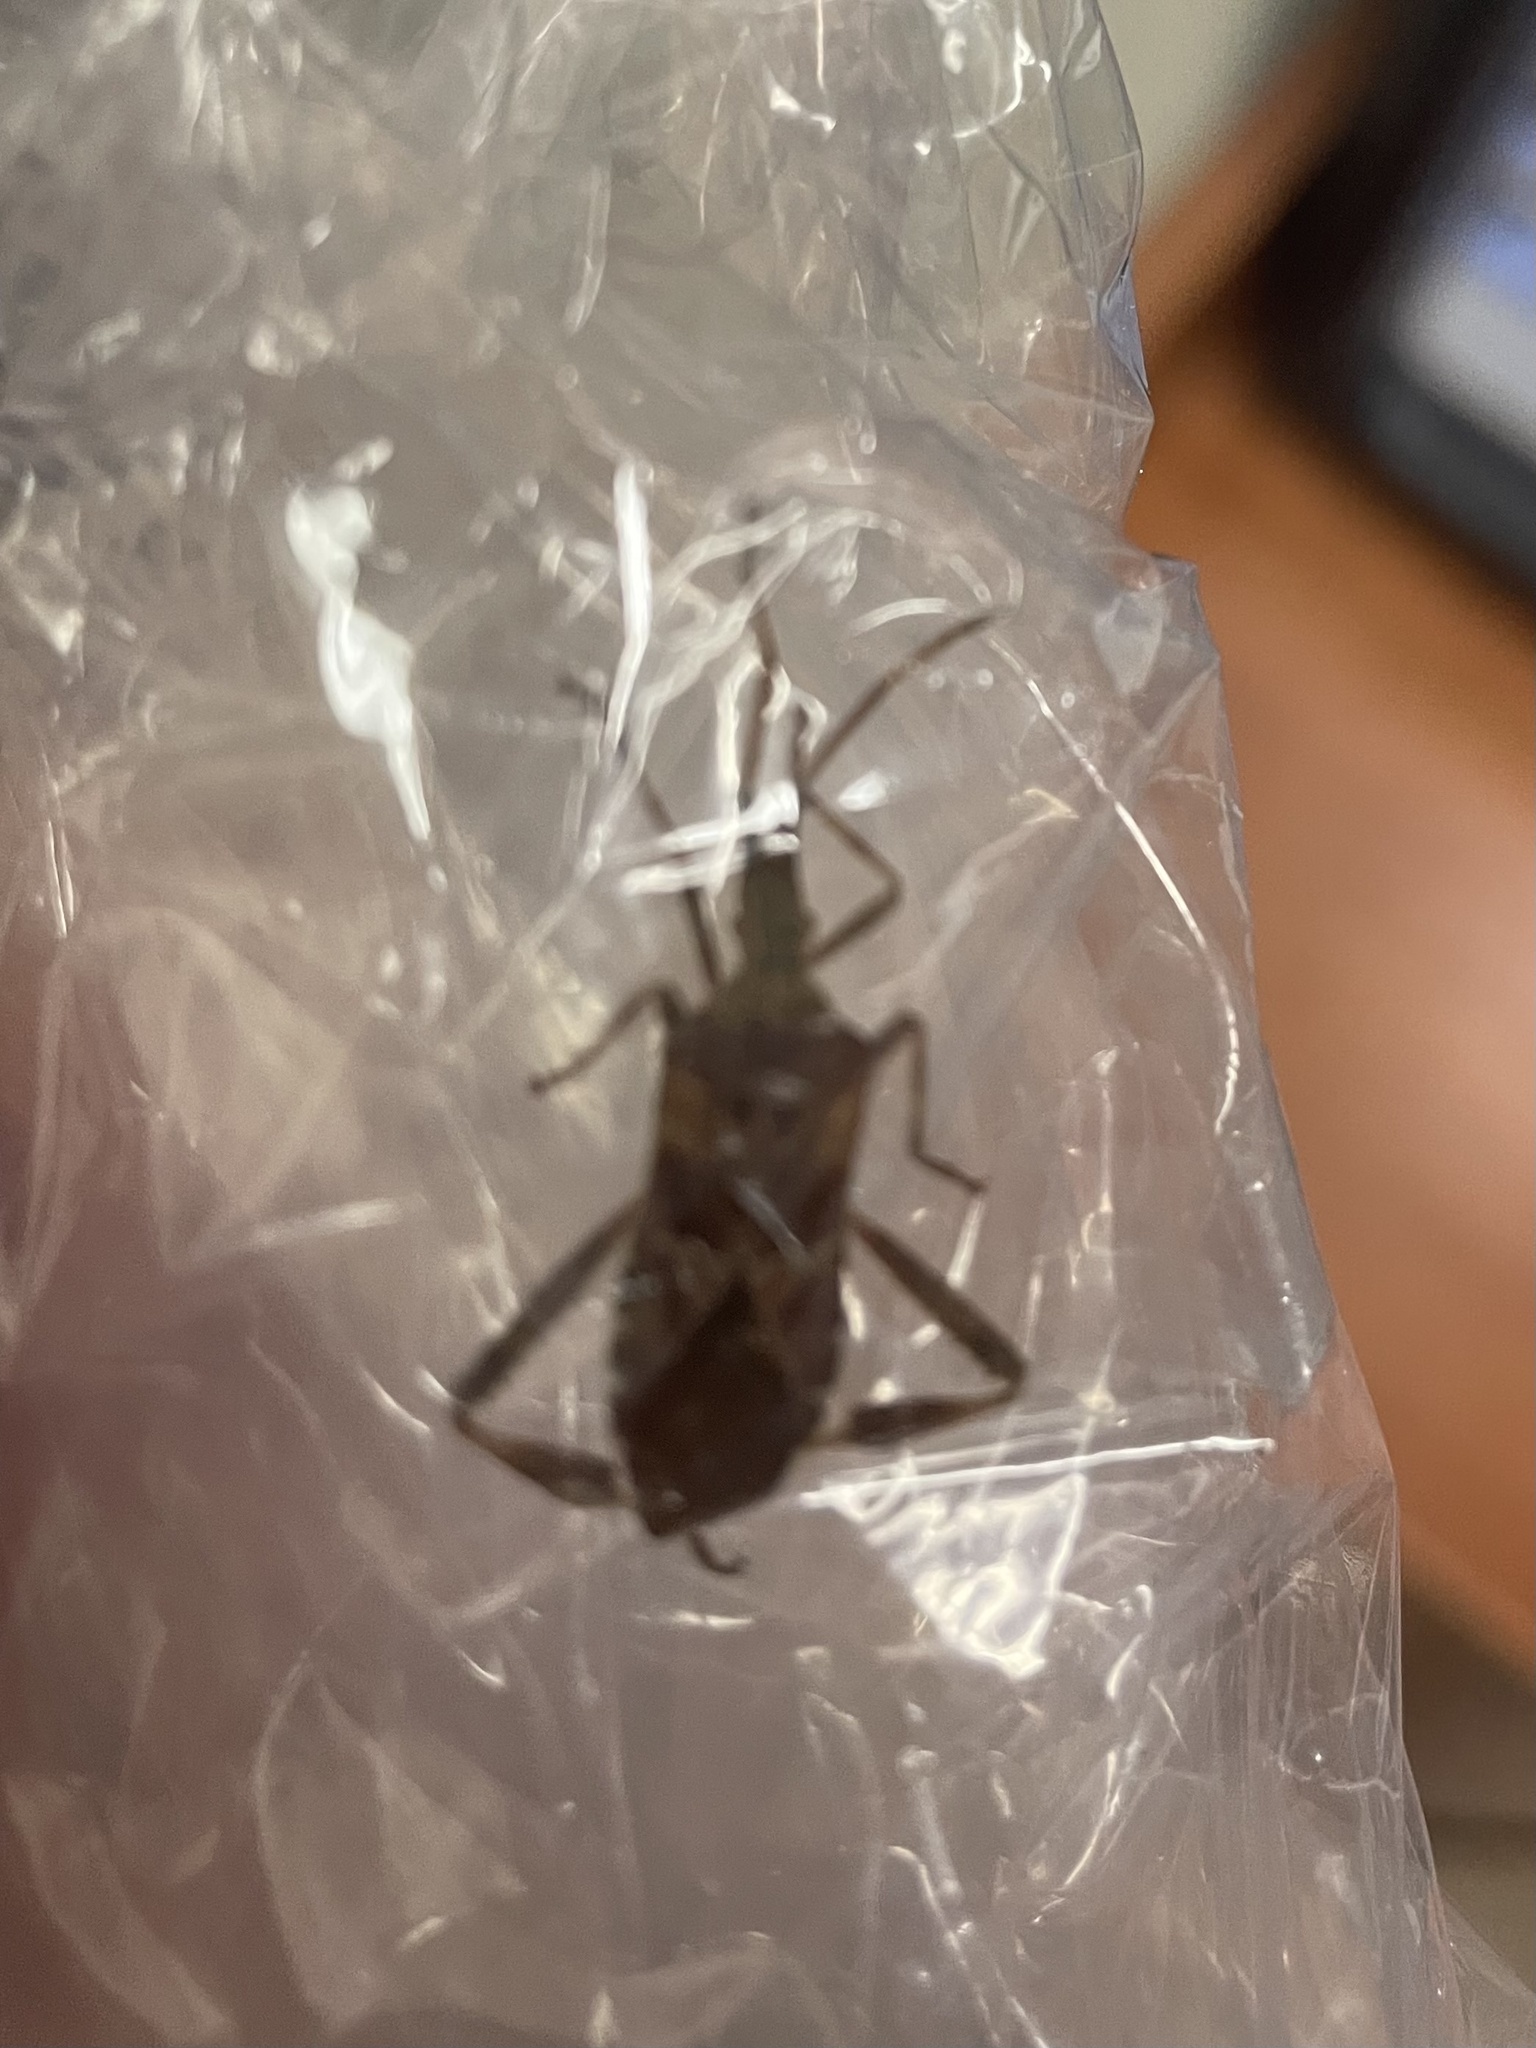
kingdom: Animalia
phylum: Arthropoda
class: Insecta
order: Hemiptera
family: Coreidae
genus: Leptoglossus
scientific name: Leptoglossus occidentalis
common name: Western conifer-seed bug
